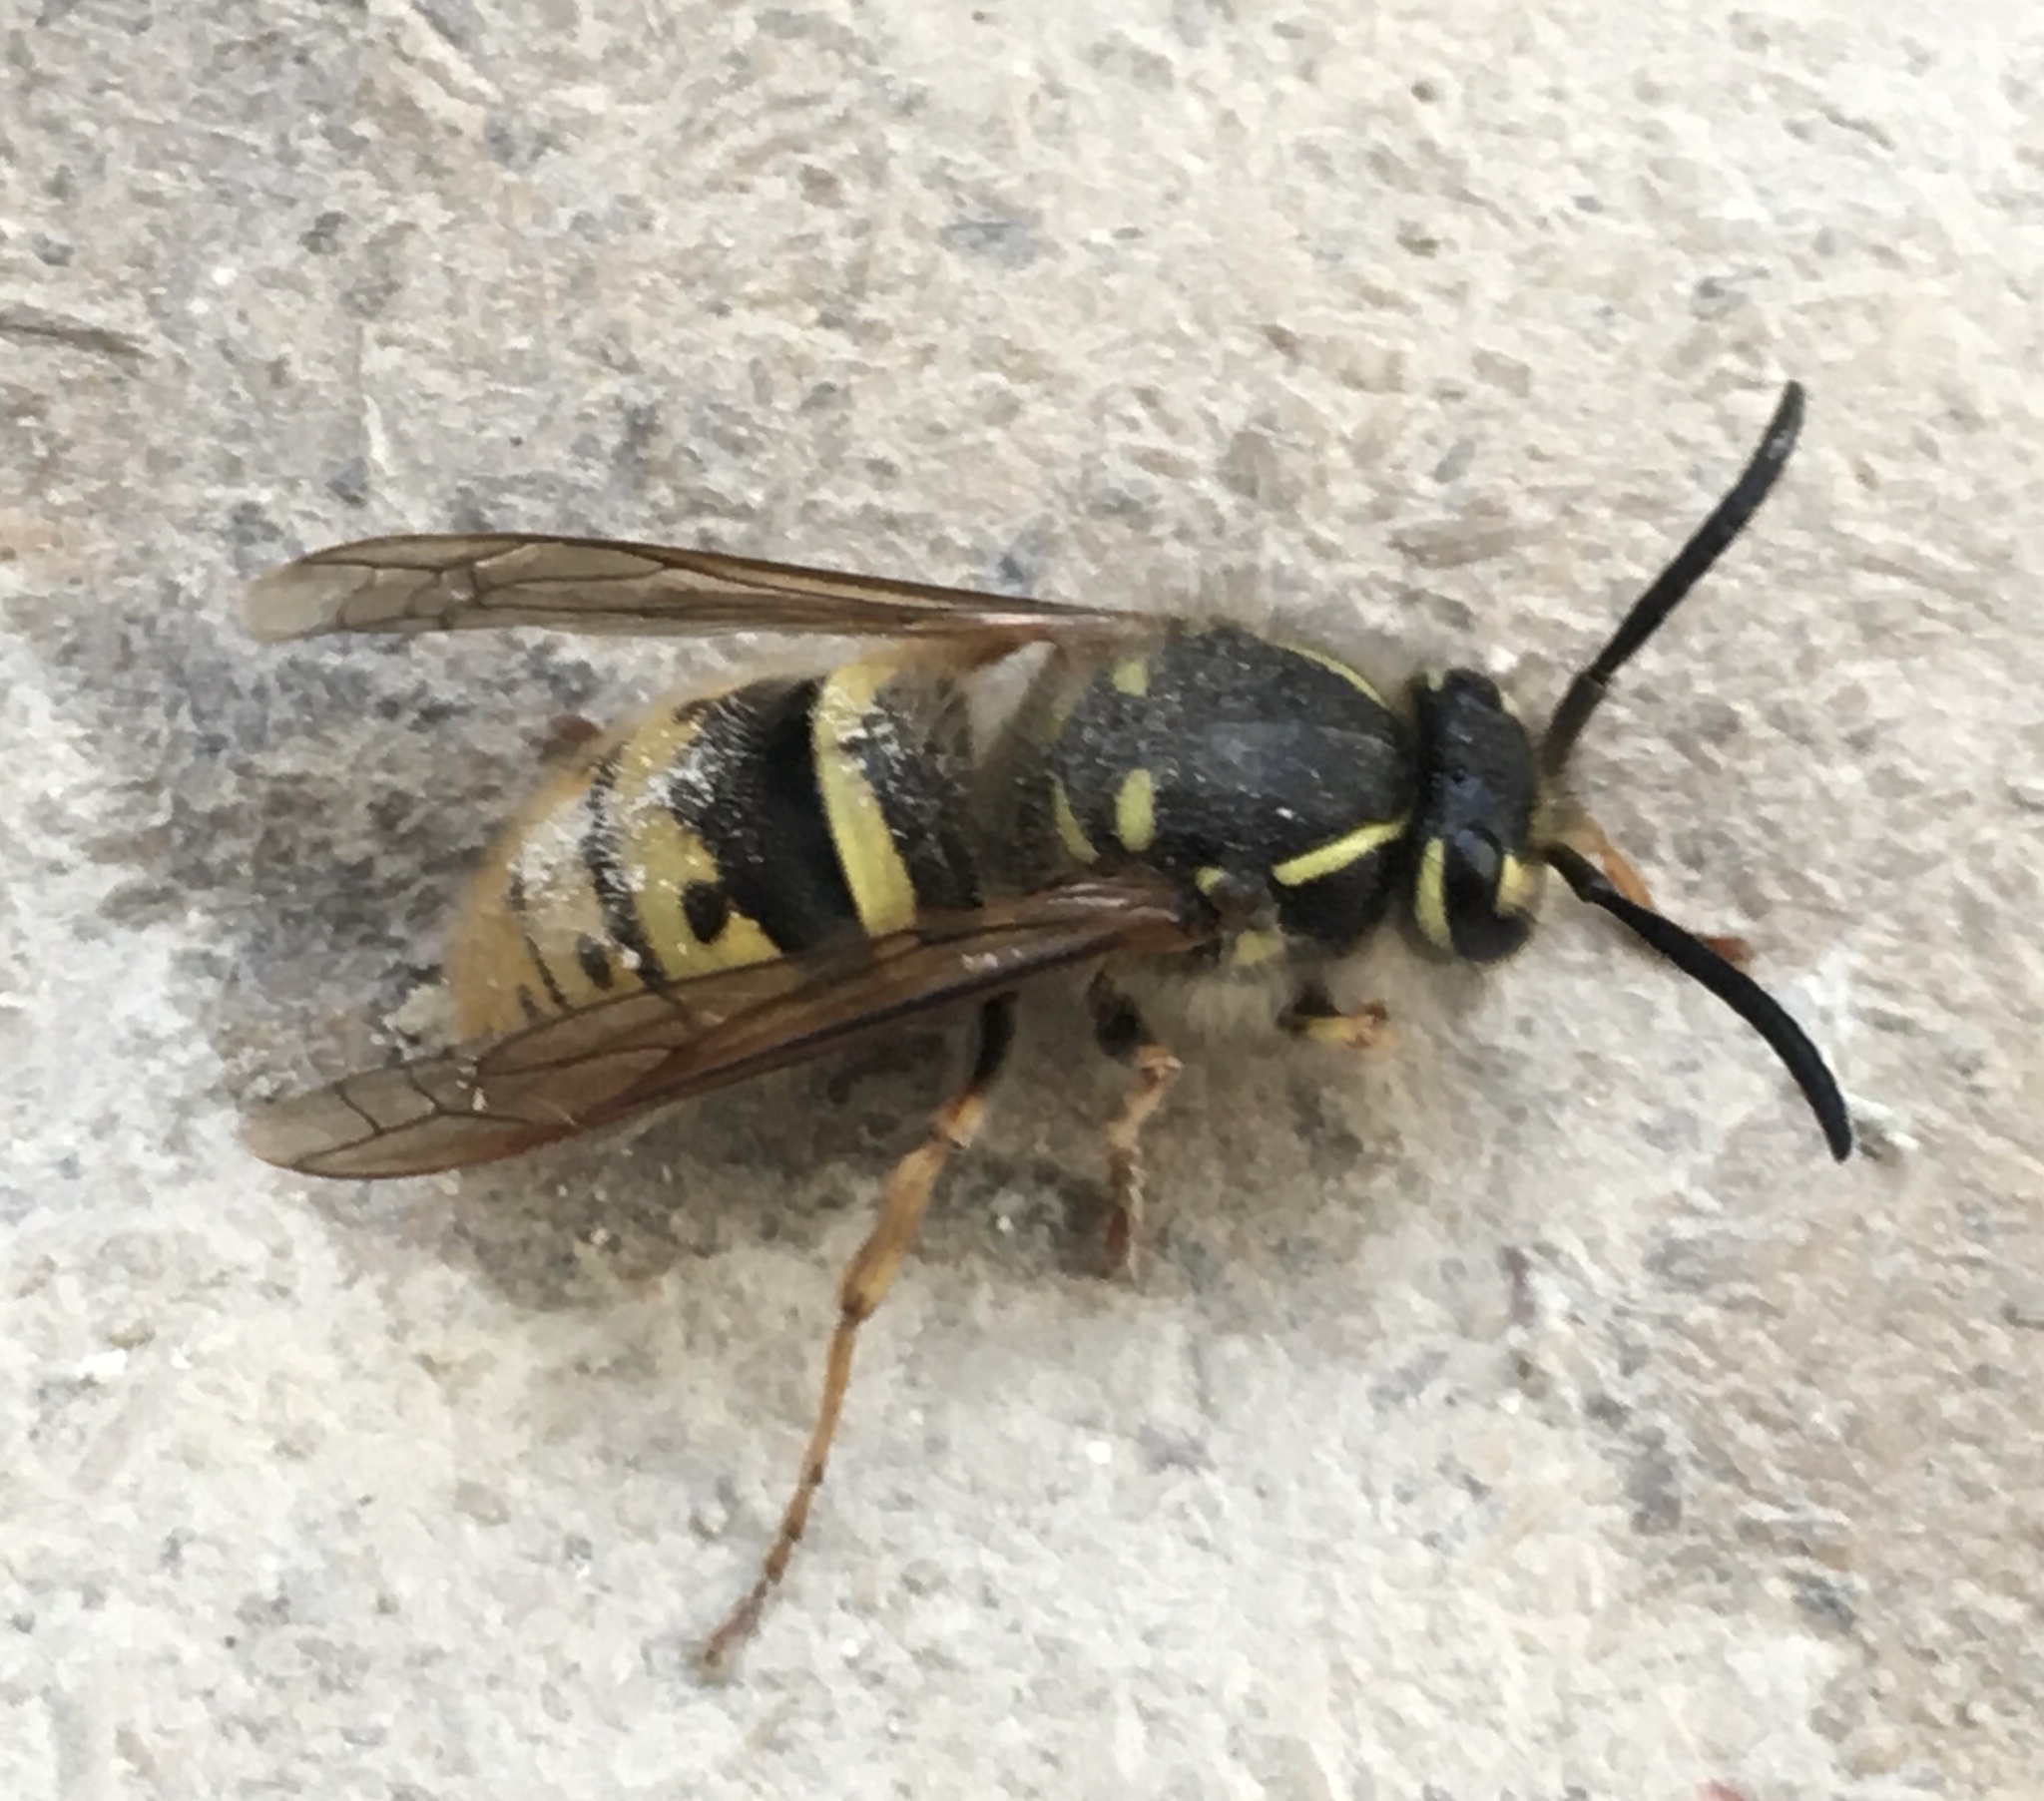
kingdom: Animalia
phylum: Arthropoda
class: Insecta
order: Hymenoptera
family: Vespidae
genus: Vespula
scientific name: Vespula vulgaris
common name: Common wasp
